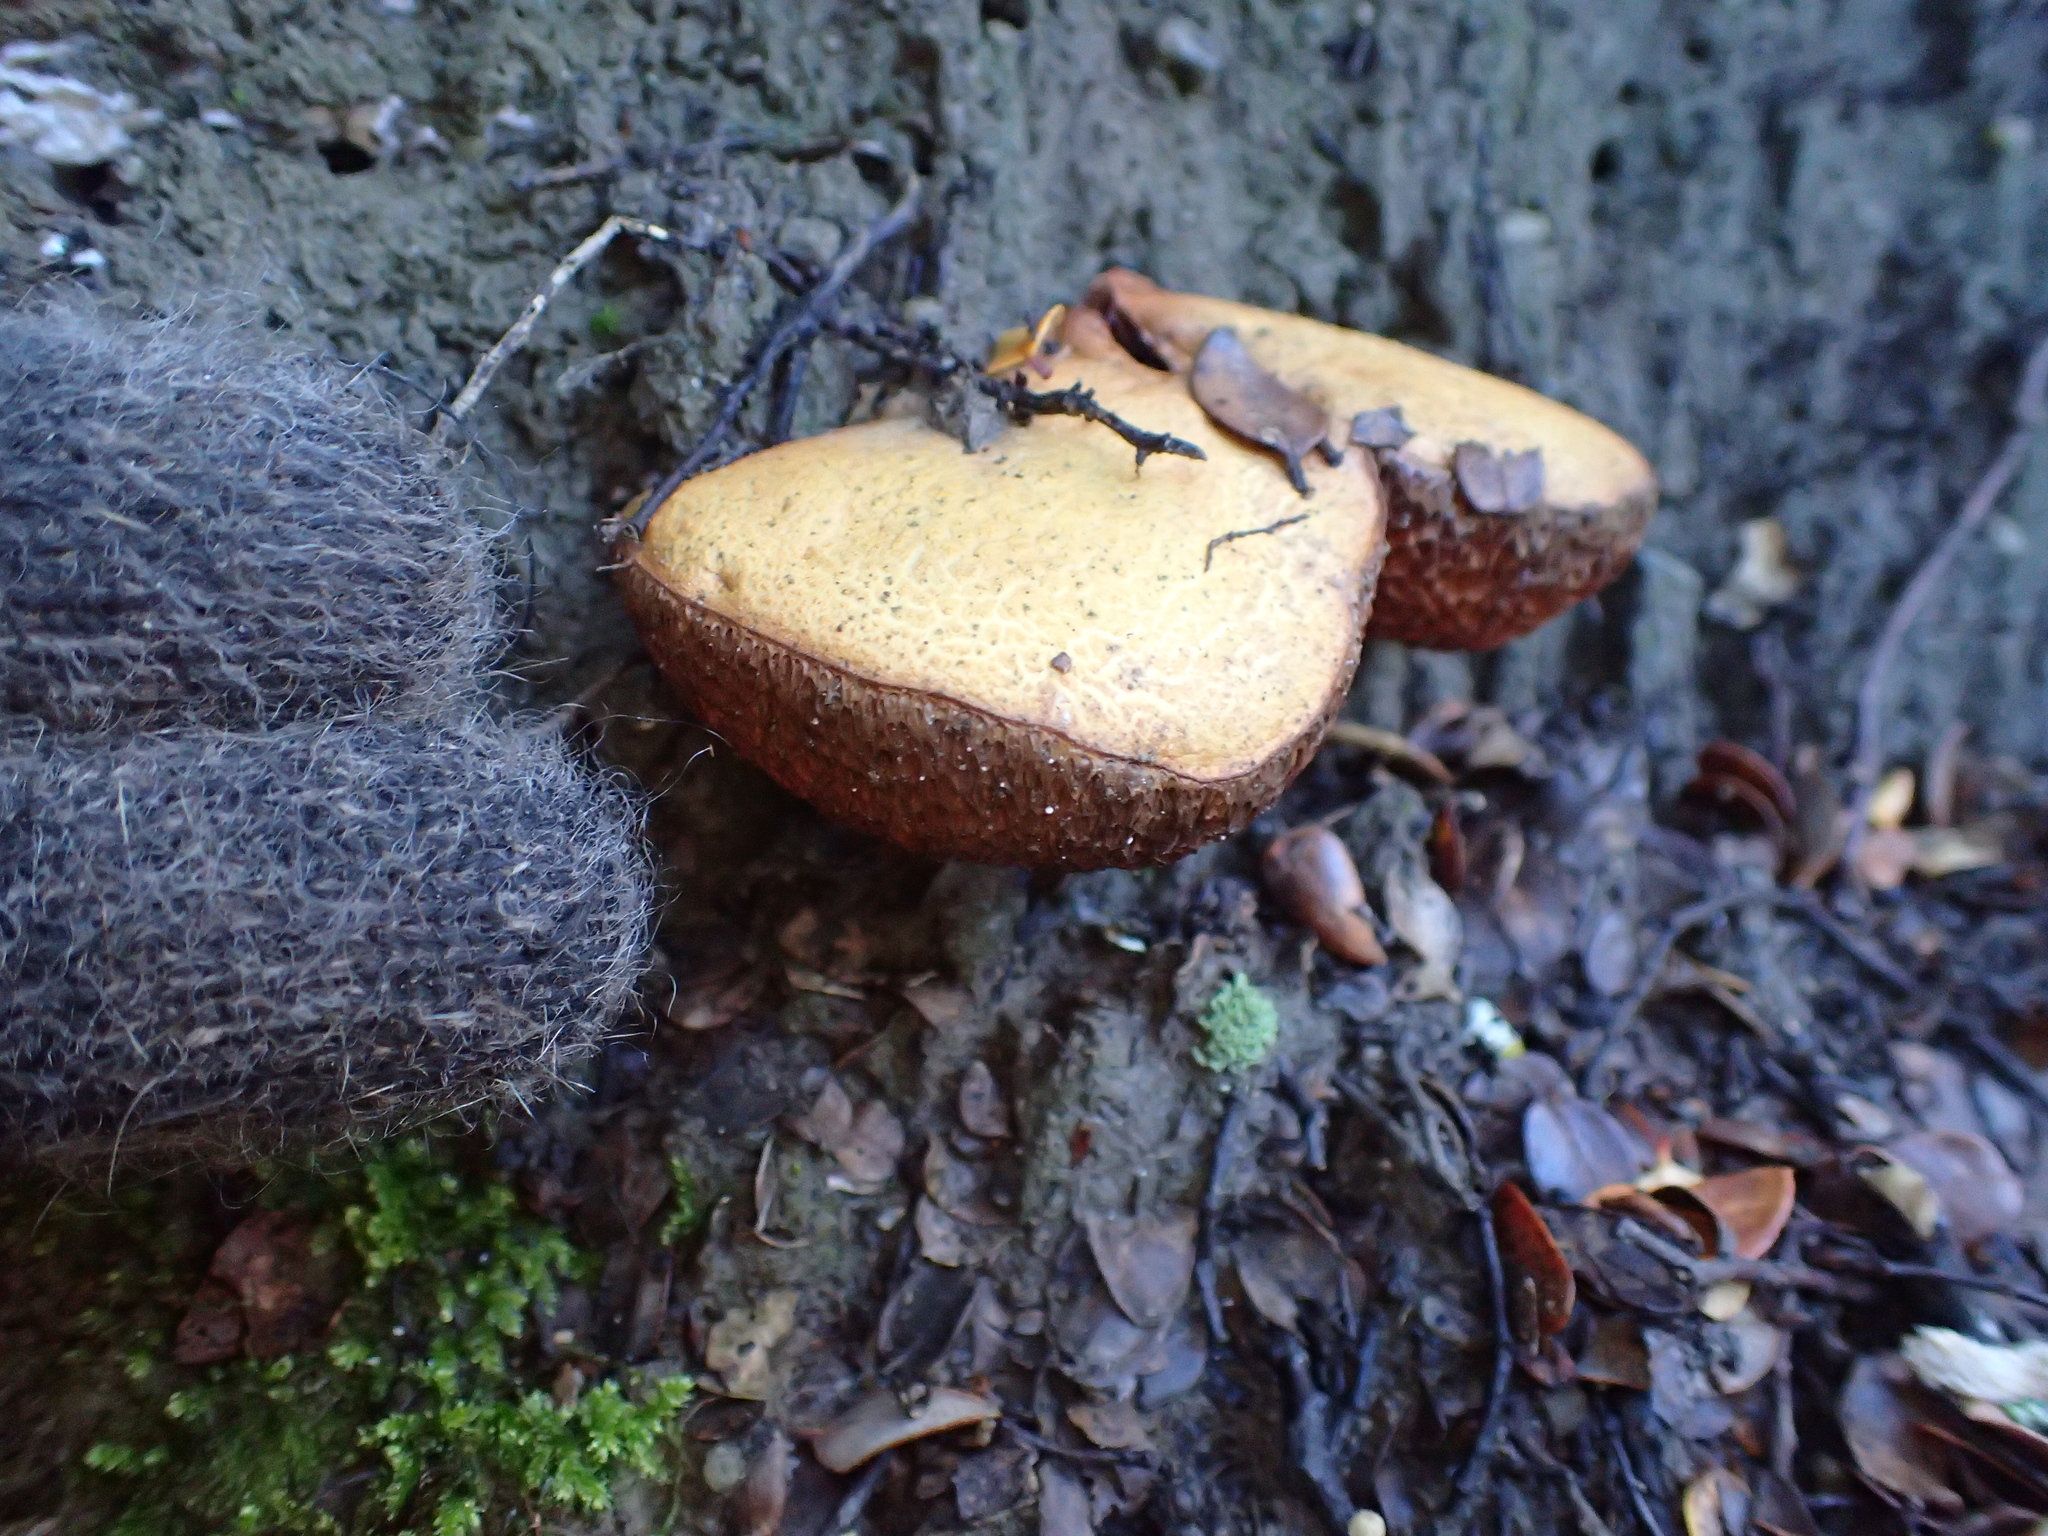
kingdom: Fungi
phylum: Basidiomycota
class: Agaricomycetes
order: Boletales
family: Boletaceae
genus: Chalciporus
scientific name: Chalciporus piperatus
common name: Peppery bolete
